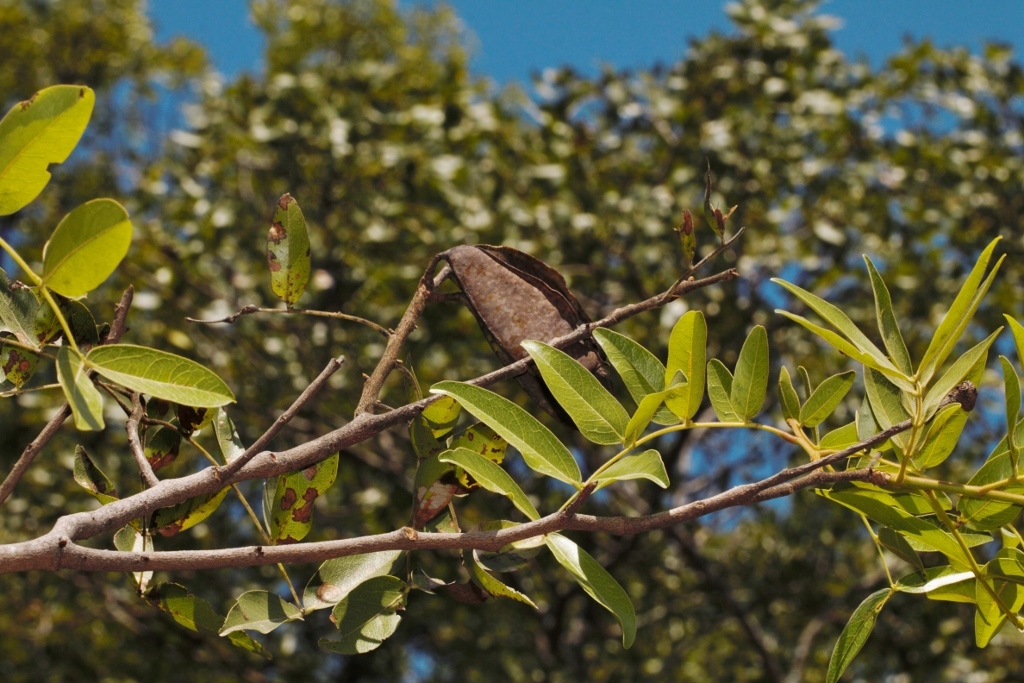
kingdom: Plantae
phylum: Tracheophyta
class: Magnoliopsida
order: Fabales
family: Fabaceae
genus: Brachystegia
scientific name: Brachystegia spiciformis
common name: Zebrawood
